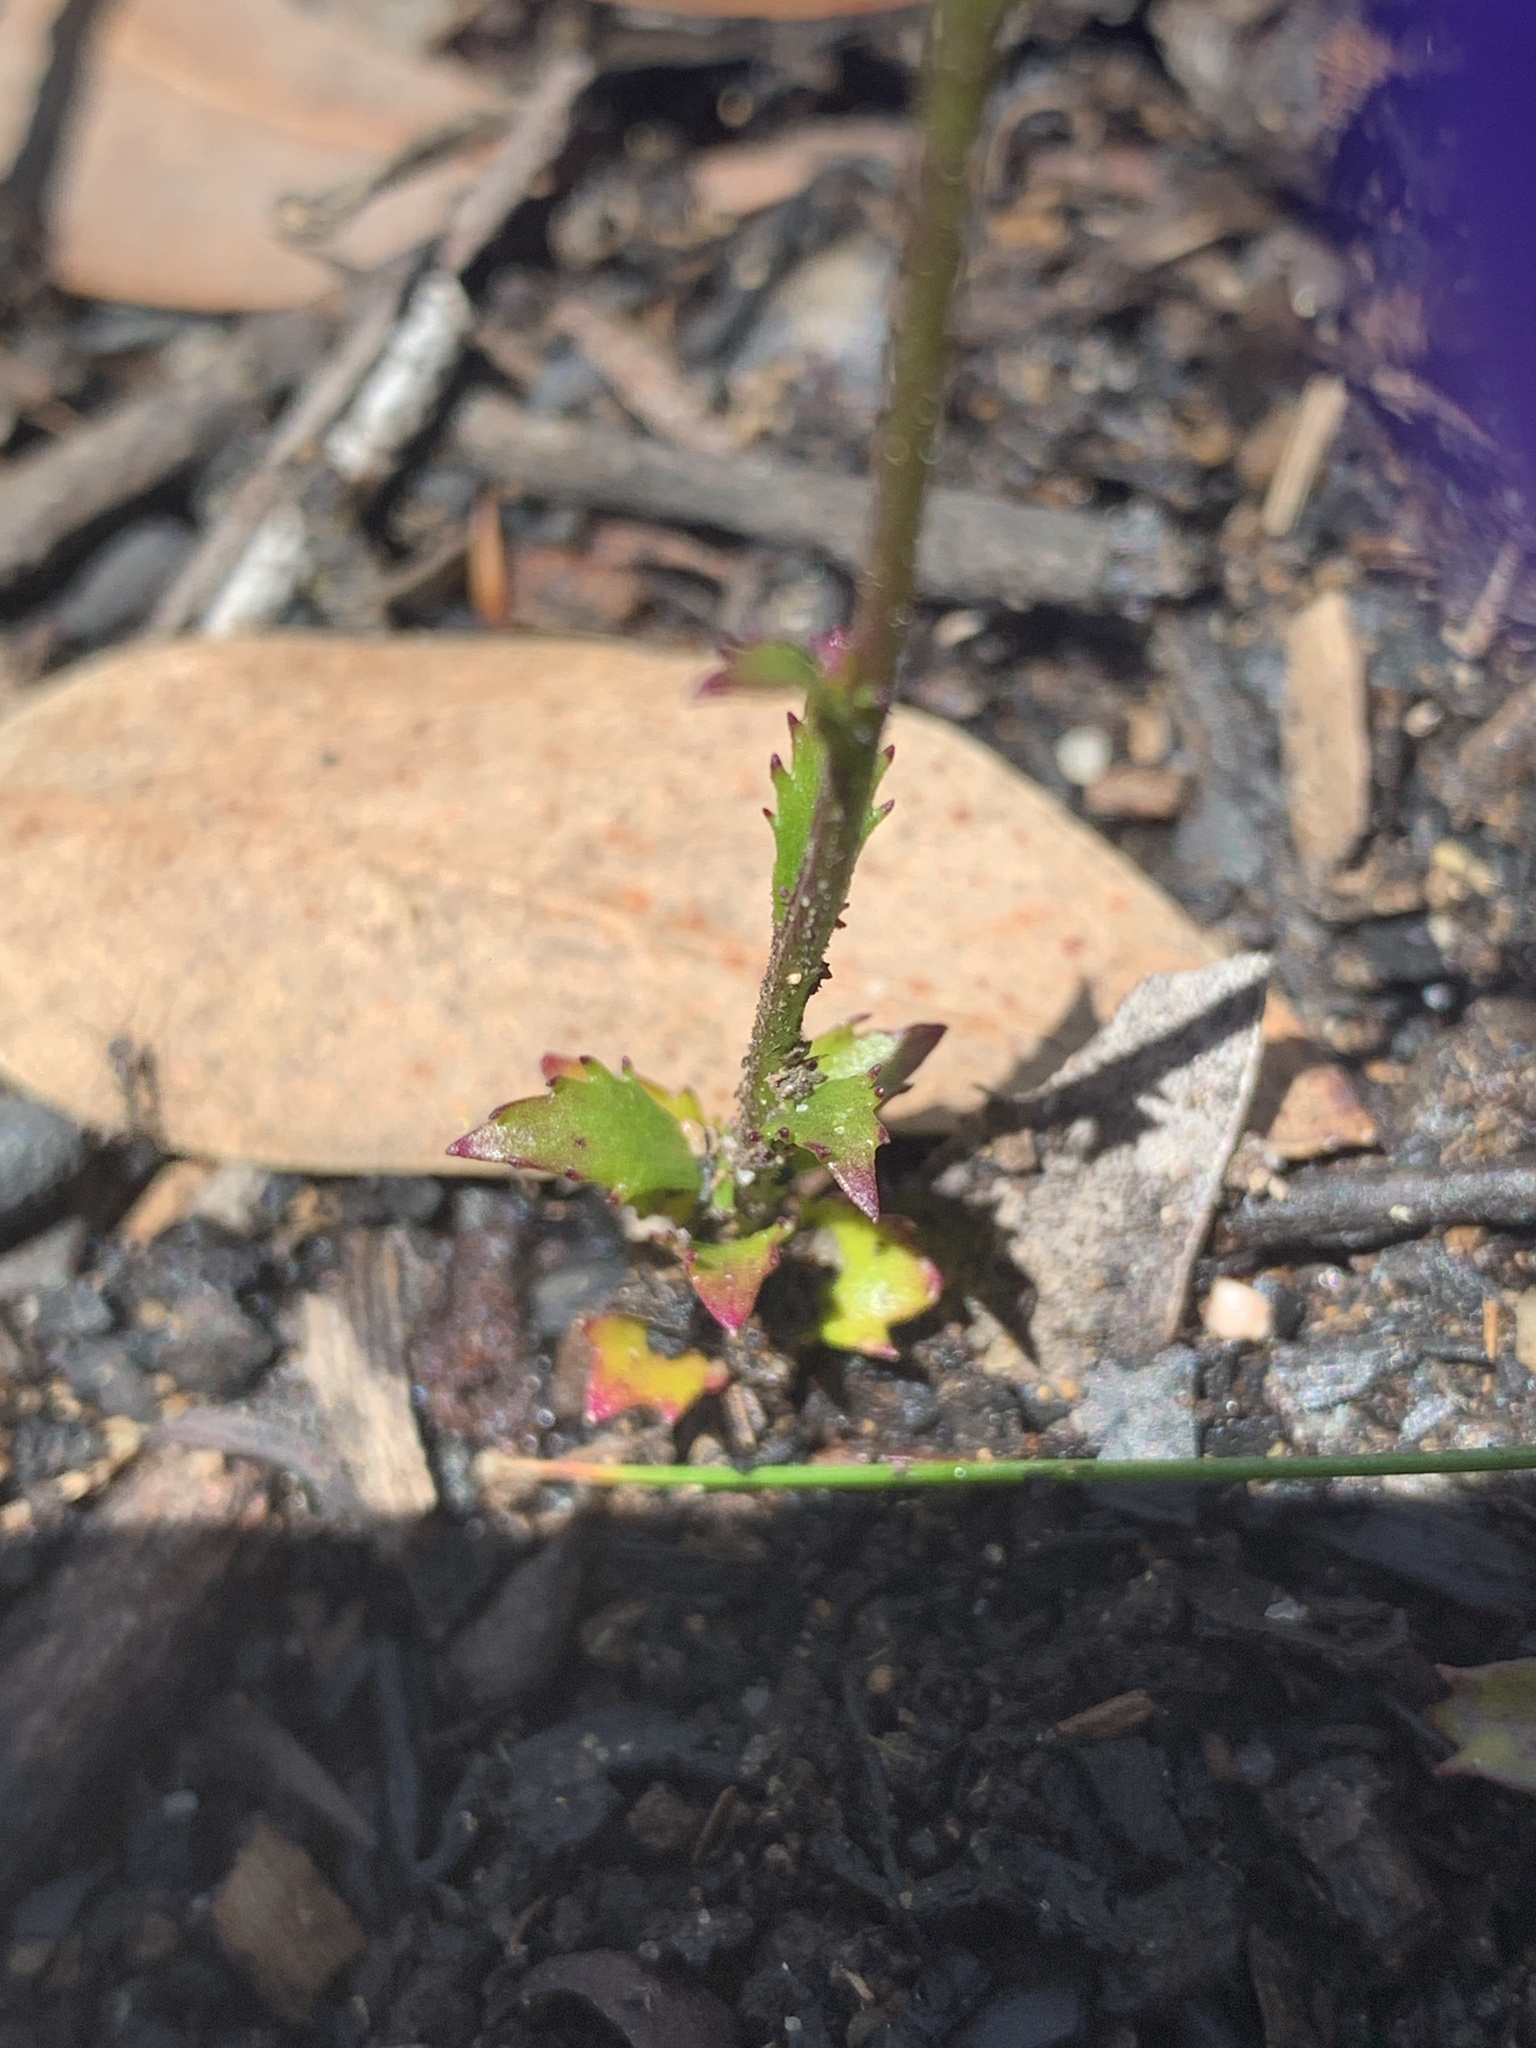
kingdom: Plantae
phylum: Tracheophyta
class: Magnoliopsida
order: Asterales
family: Campanulaceae
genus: Lobelia
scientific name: Lobelia dentata
